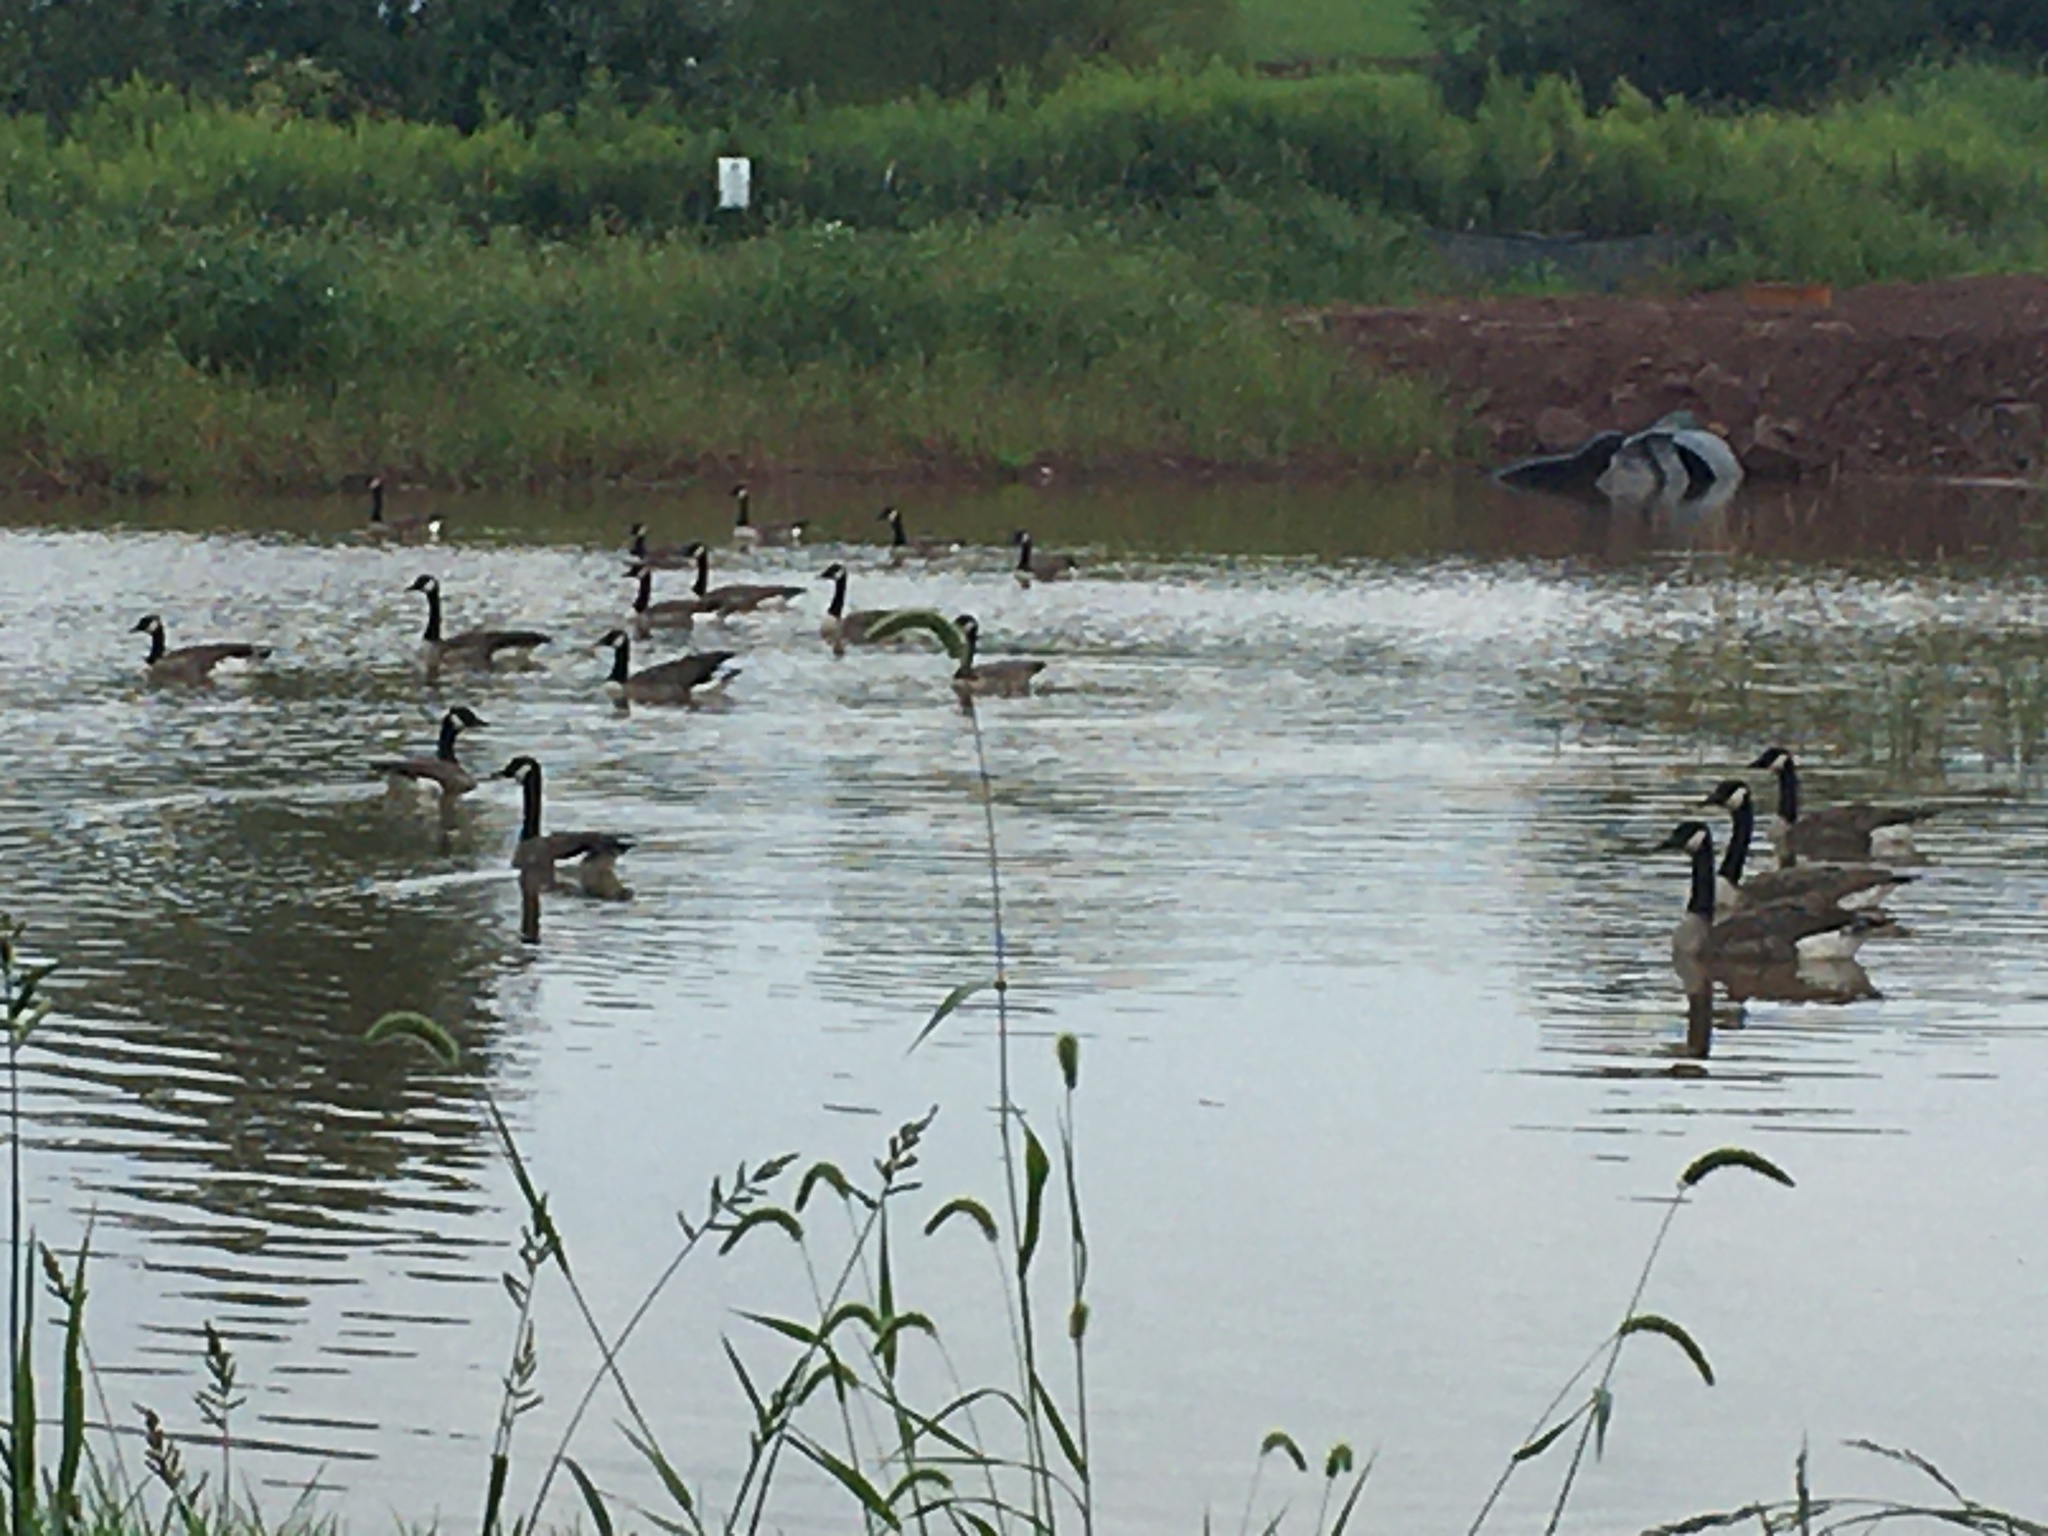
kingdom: Animalia
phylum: Chordata
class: Aves
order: Anseriformes
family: Anatidae
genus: Branta
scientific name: Branta canadensis
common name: Canada goose
